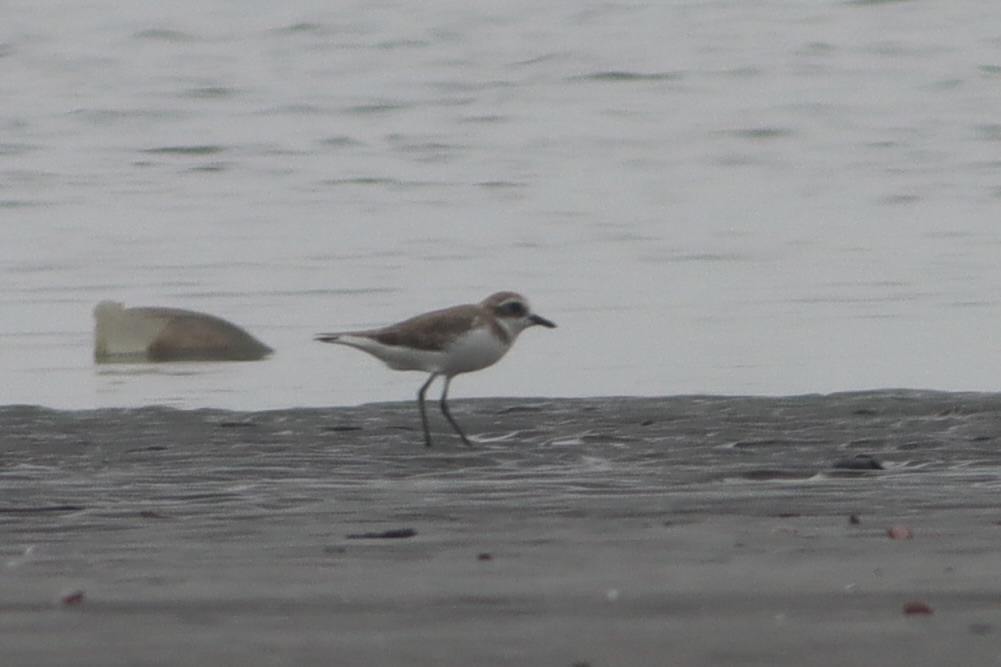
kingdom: Animalia
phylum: Chordata
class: Aves
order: Charadriiformes
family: Charadriidae
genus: Anarhynchus
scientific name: Anarhynchus
